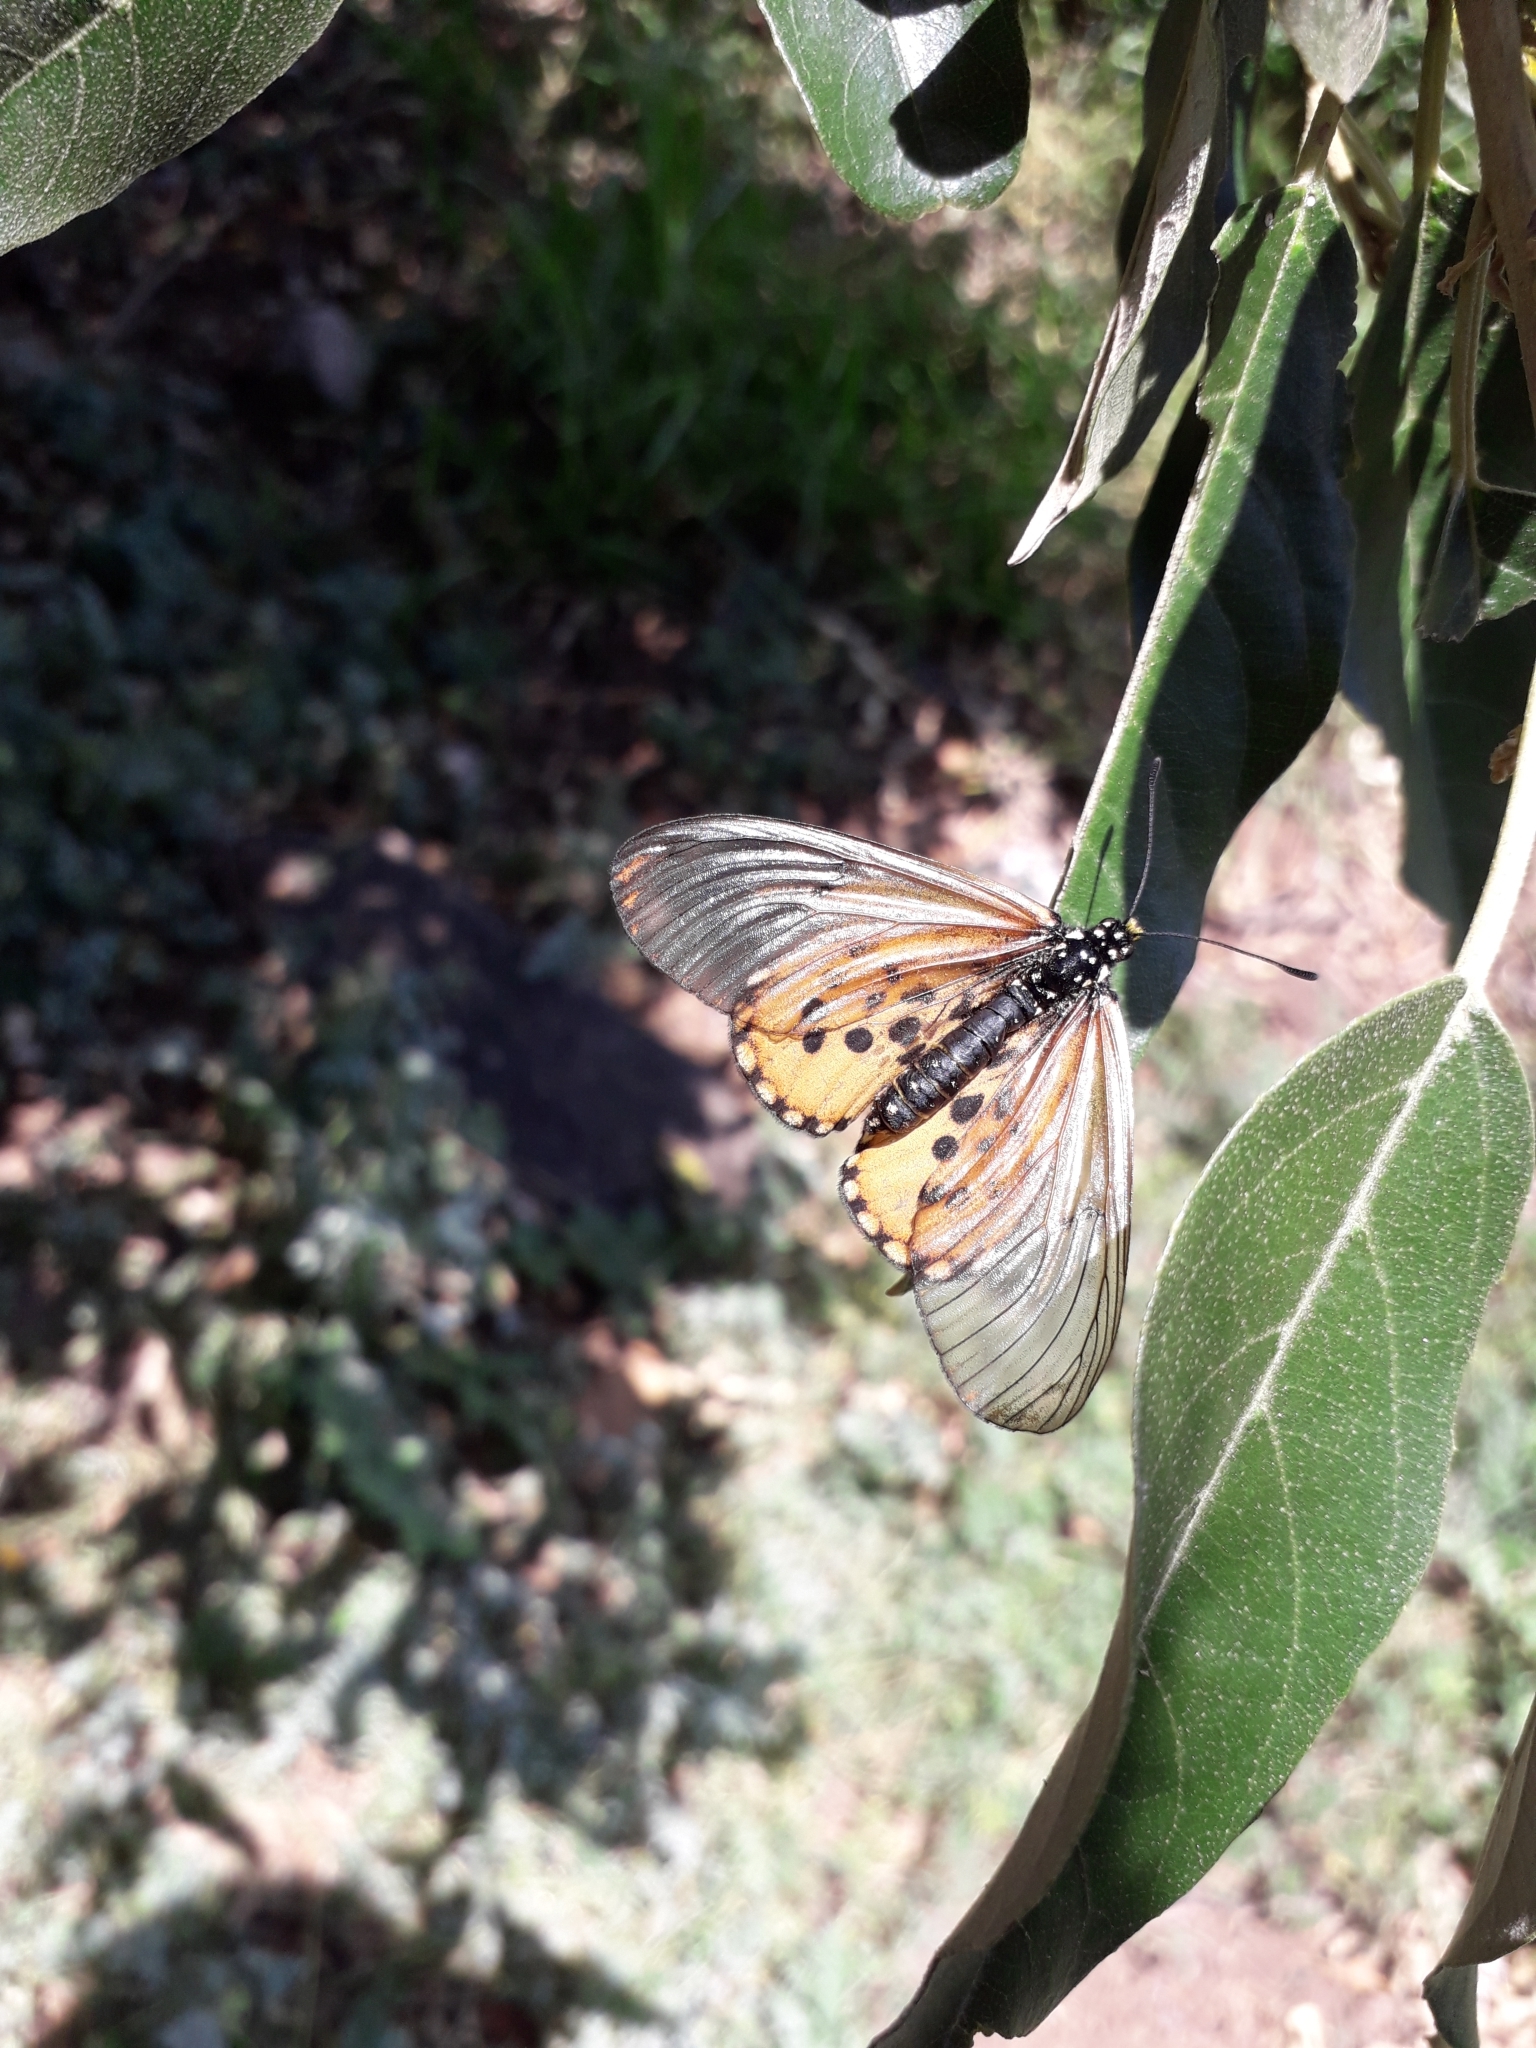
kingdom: Animalia
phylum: Arthropoda
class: Insecta
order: Lepidoptera
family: Nymphalidae
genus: Acraea
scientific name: Acraea horta
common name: Garden acraea
